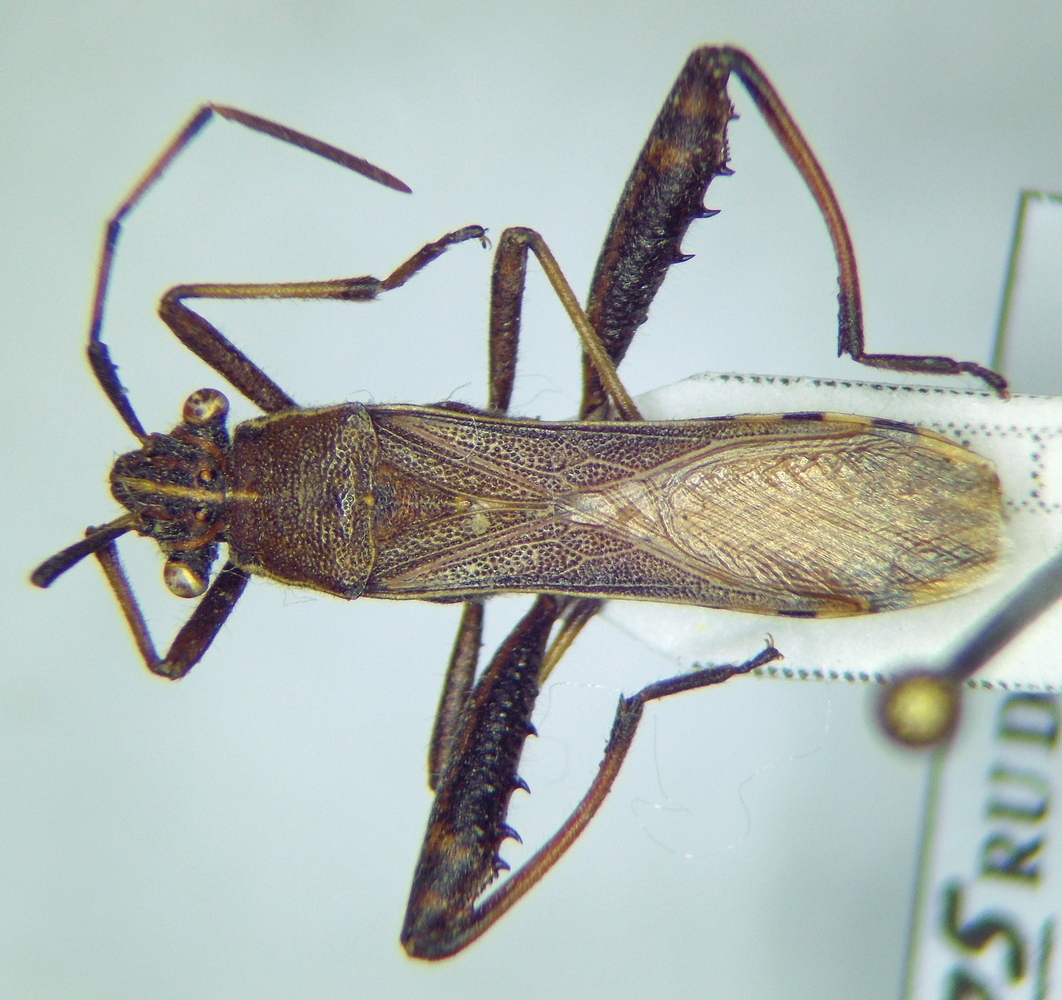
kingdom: Animalia
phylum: Arthropoda
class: Insecta
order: Hemiptera
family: Alydidae
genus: Camptopus
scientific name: Camptopus lateralis
